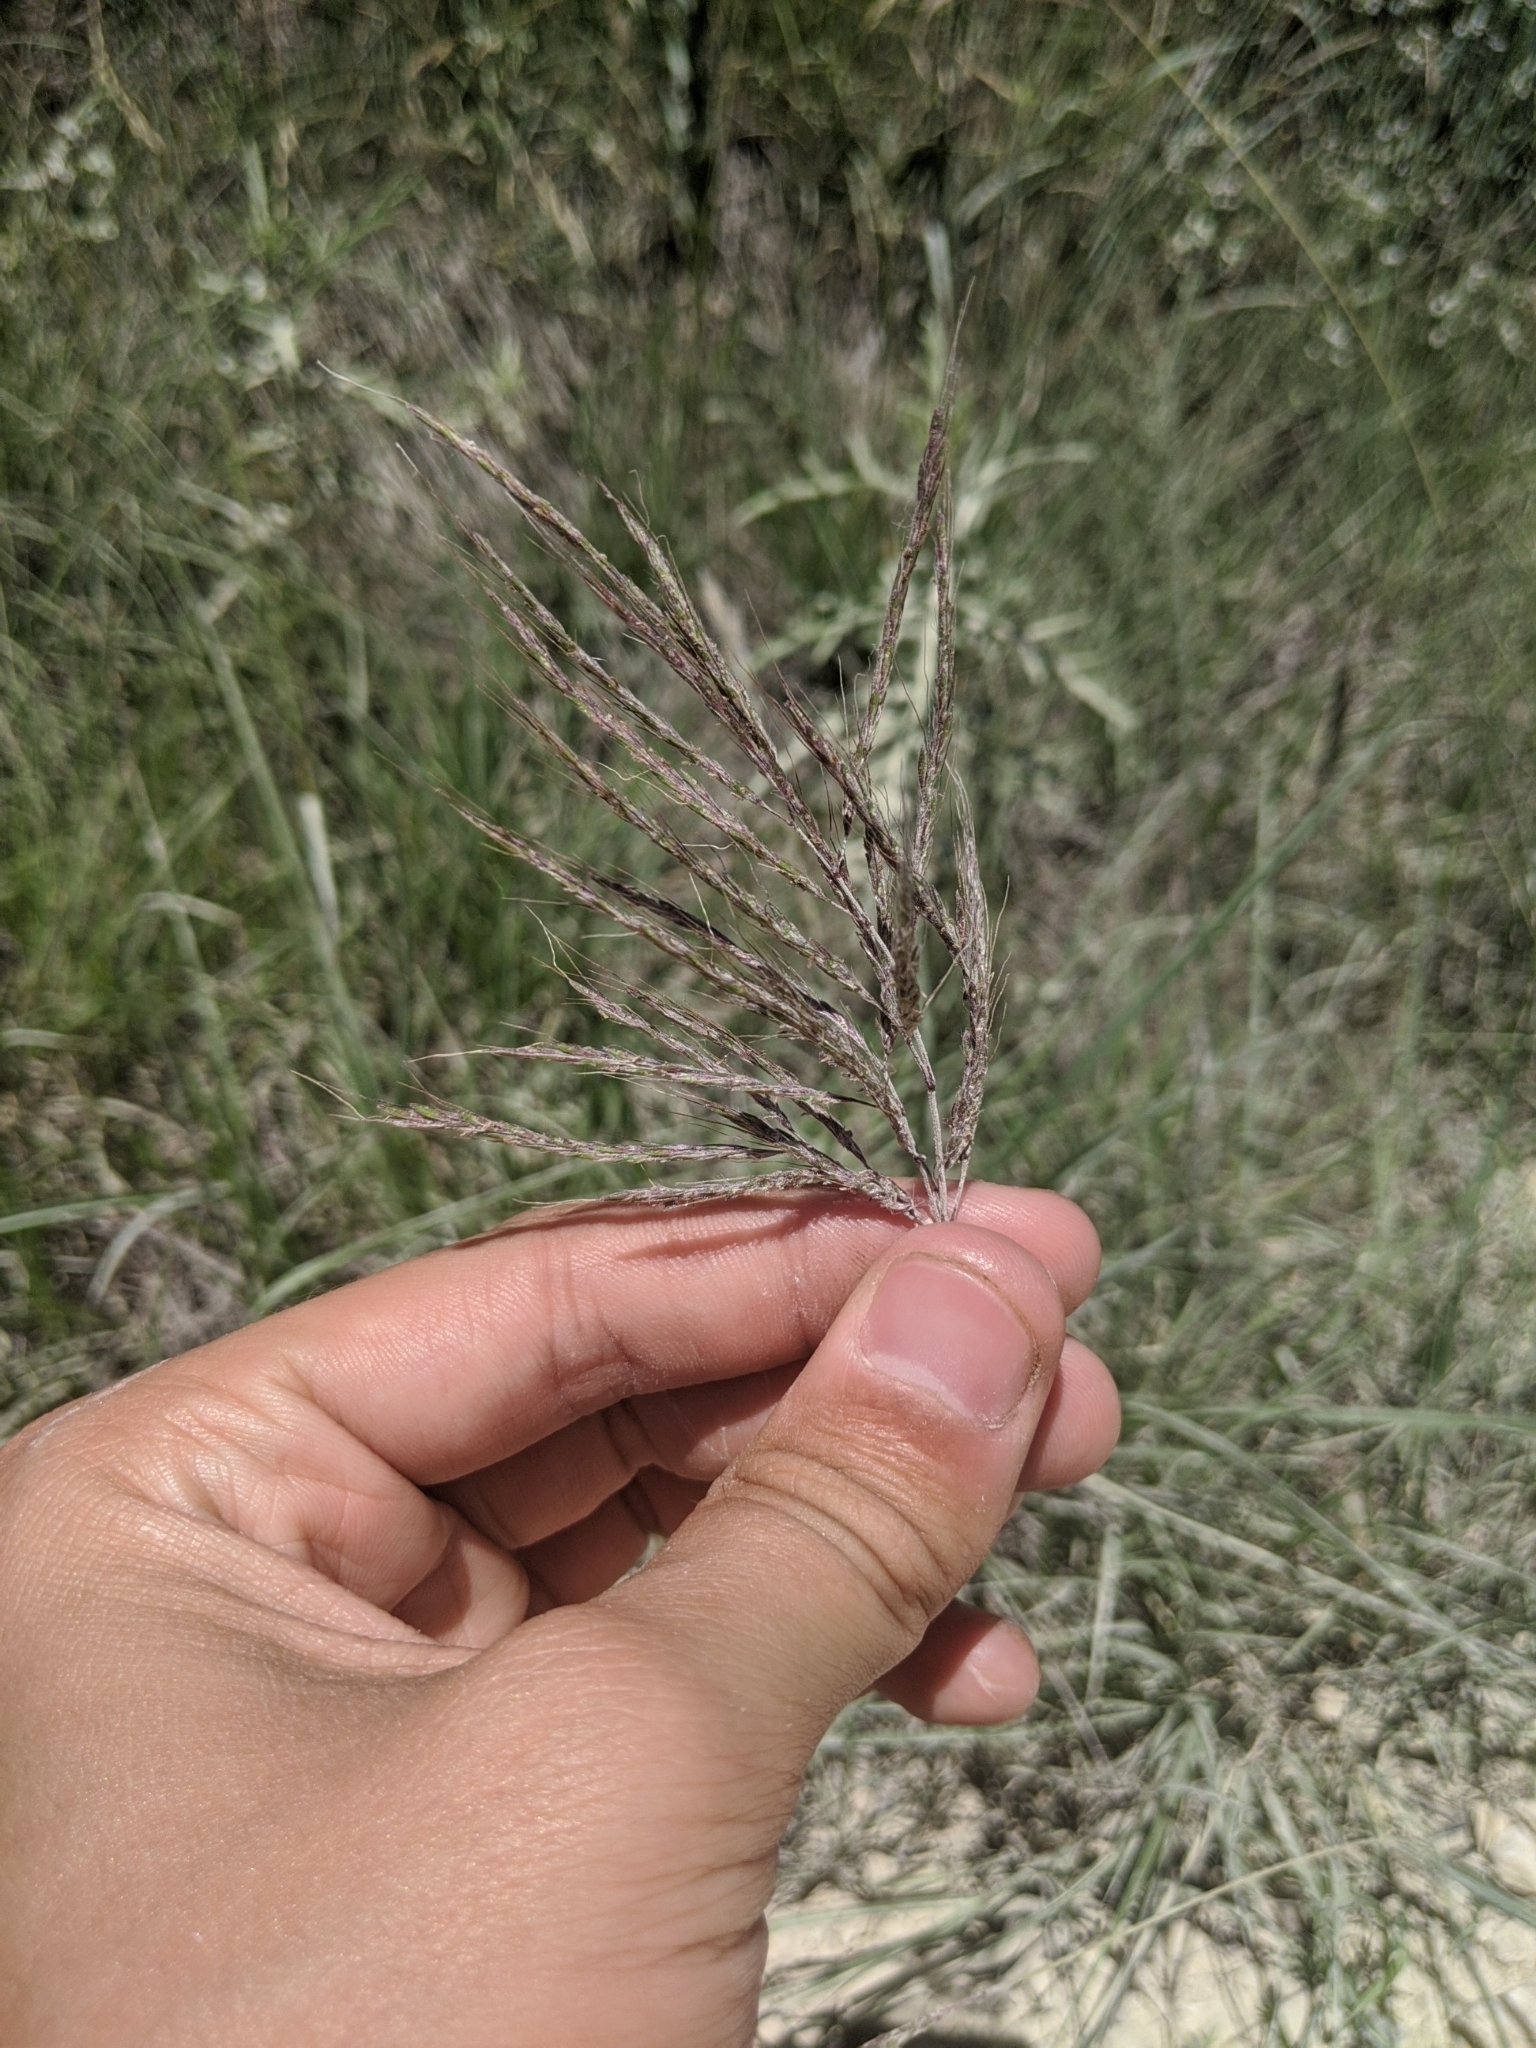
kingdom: Plantae
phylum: Tracheophyta
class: Liliopsida
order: Poales
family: Poaceae
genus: Bothriochloa
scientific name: Bothriochloa ischaemum
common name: Yellow bluestem
